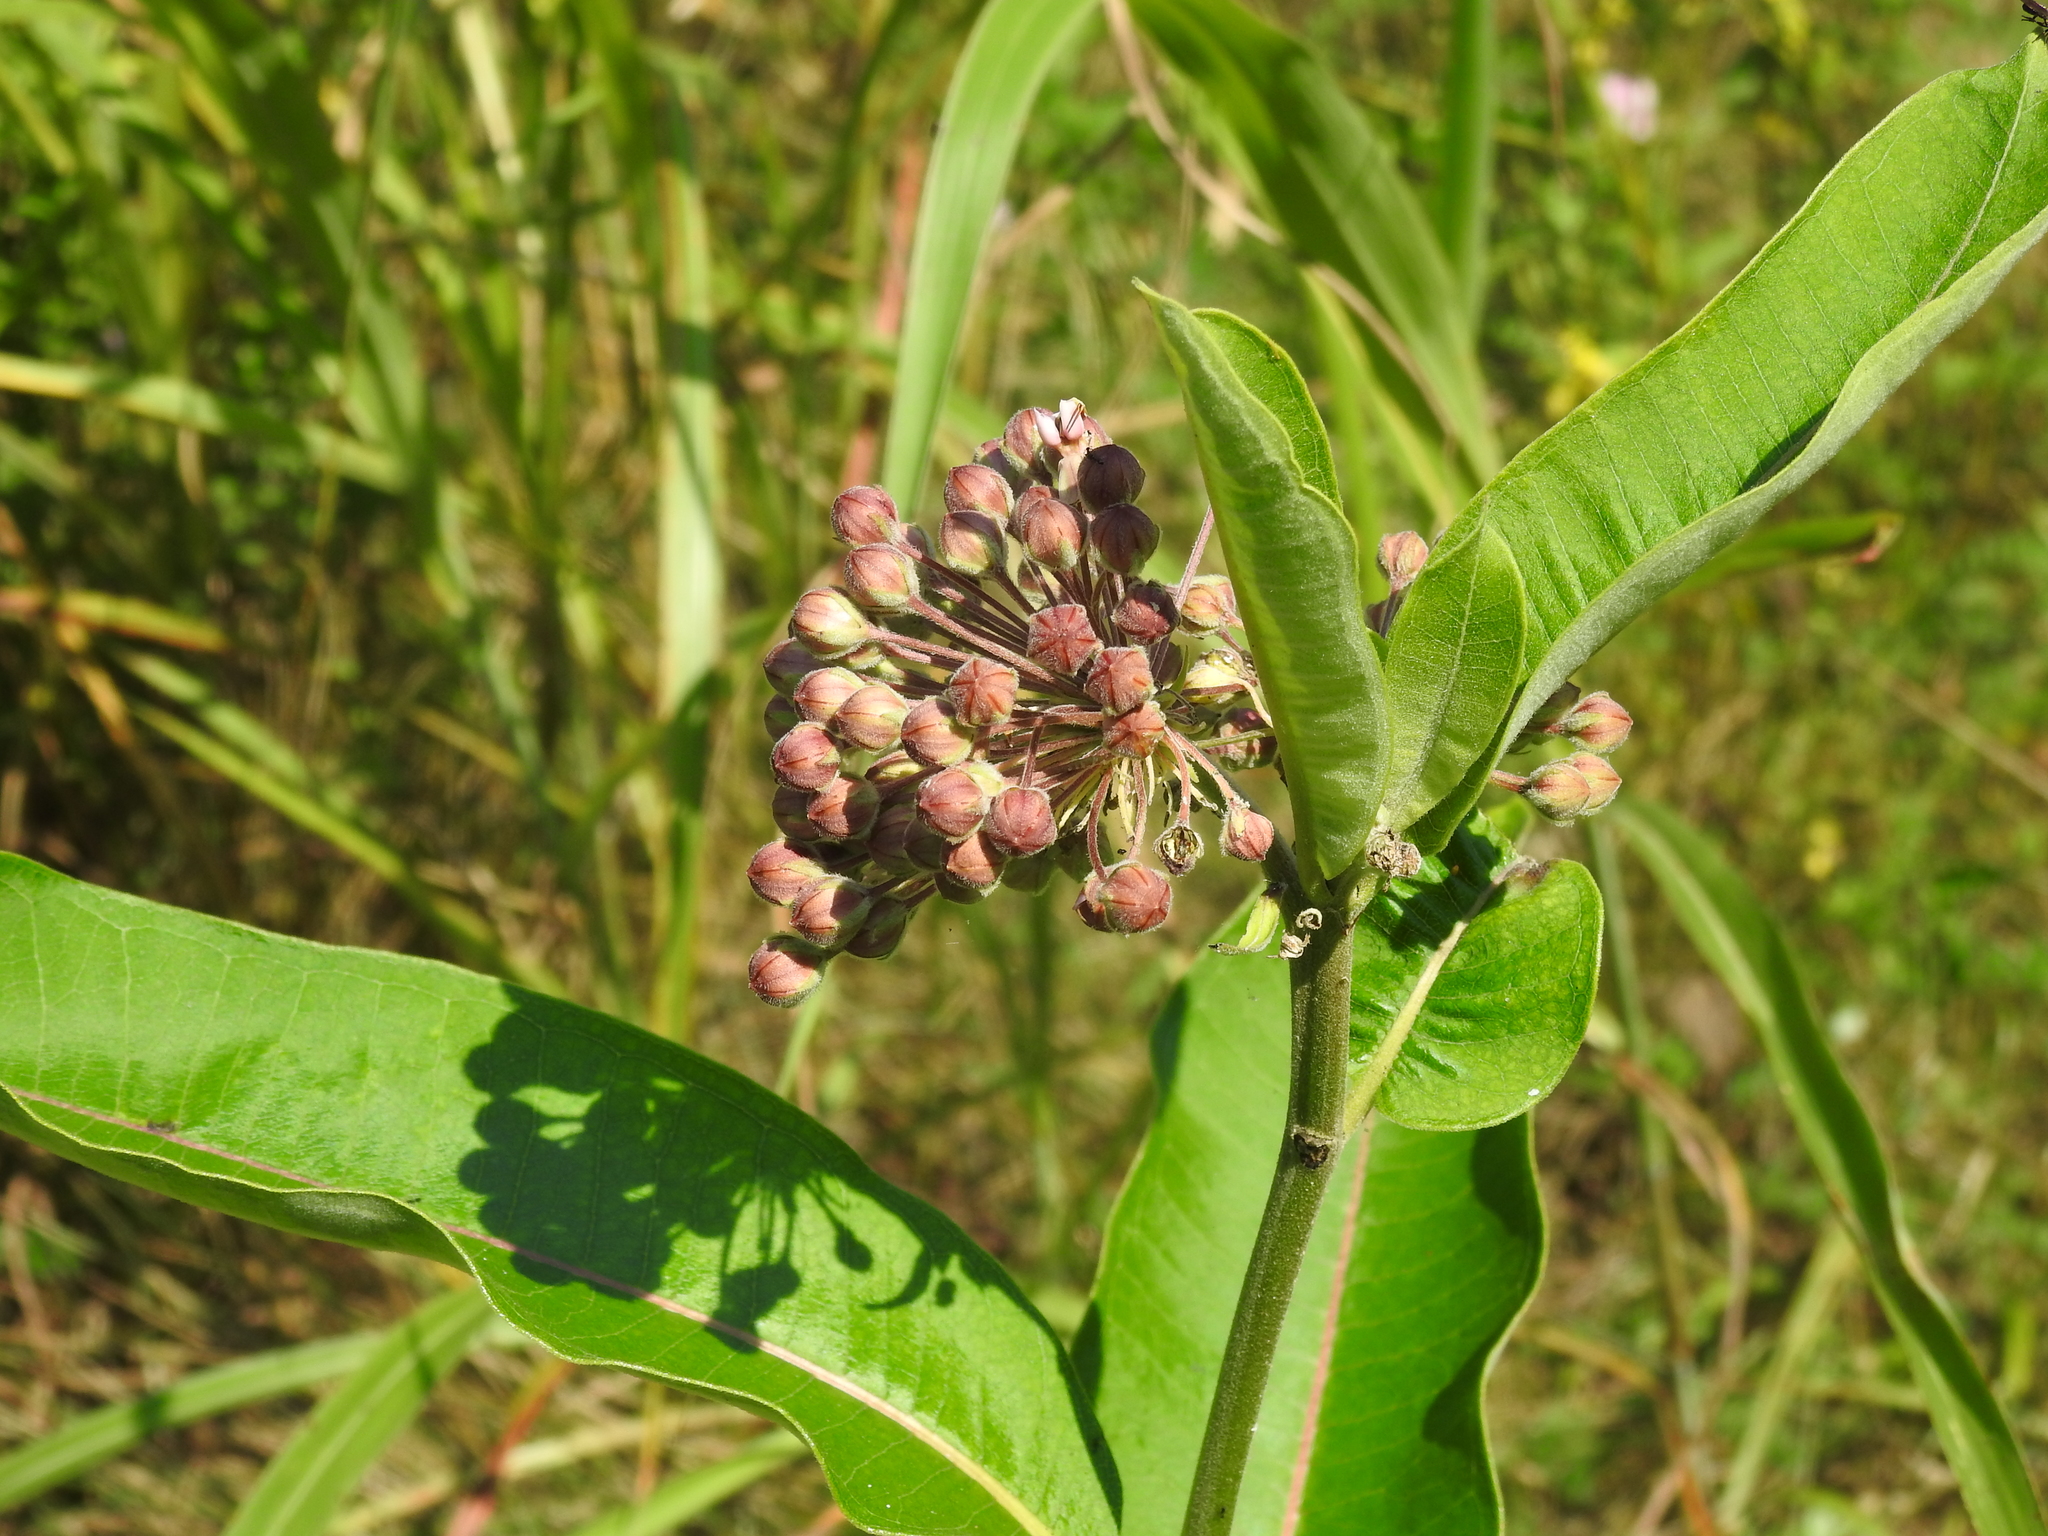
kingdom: Plantae
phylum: Tracheophyta
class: Magnoliopsida
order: Gentianales
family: Apocynaceae
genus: Asclepias
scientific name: Asclepias syriaca
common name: Common milkweed
